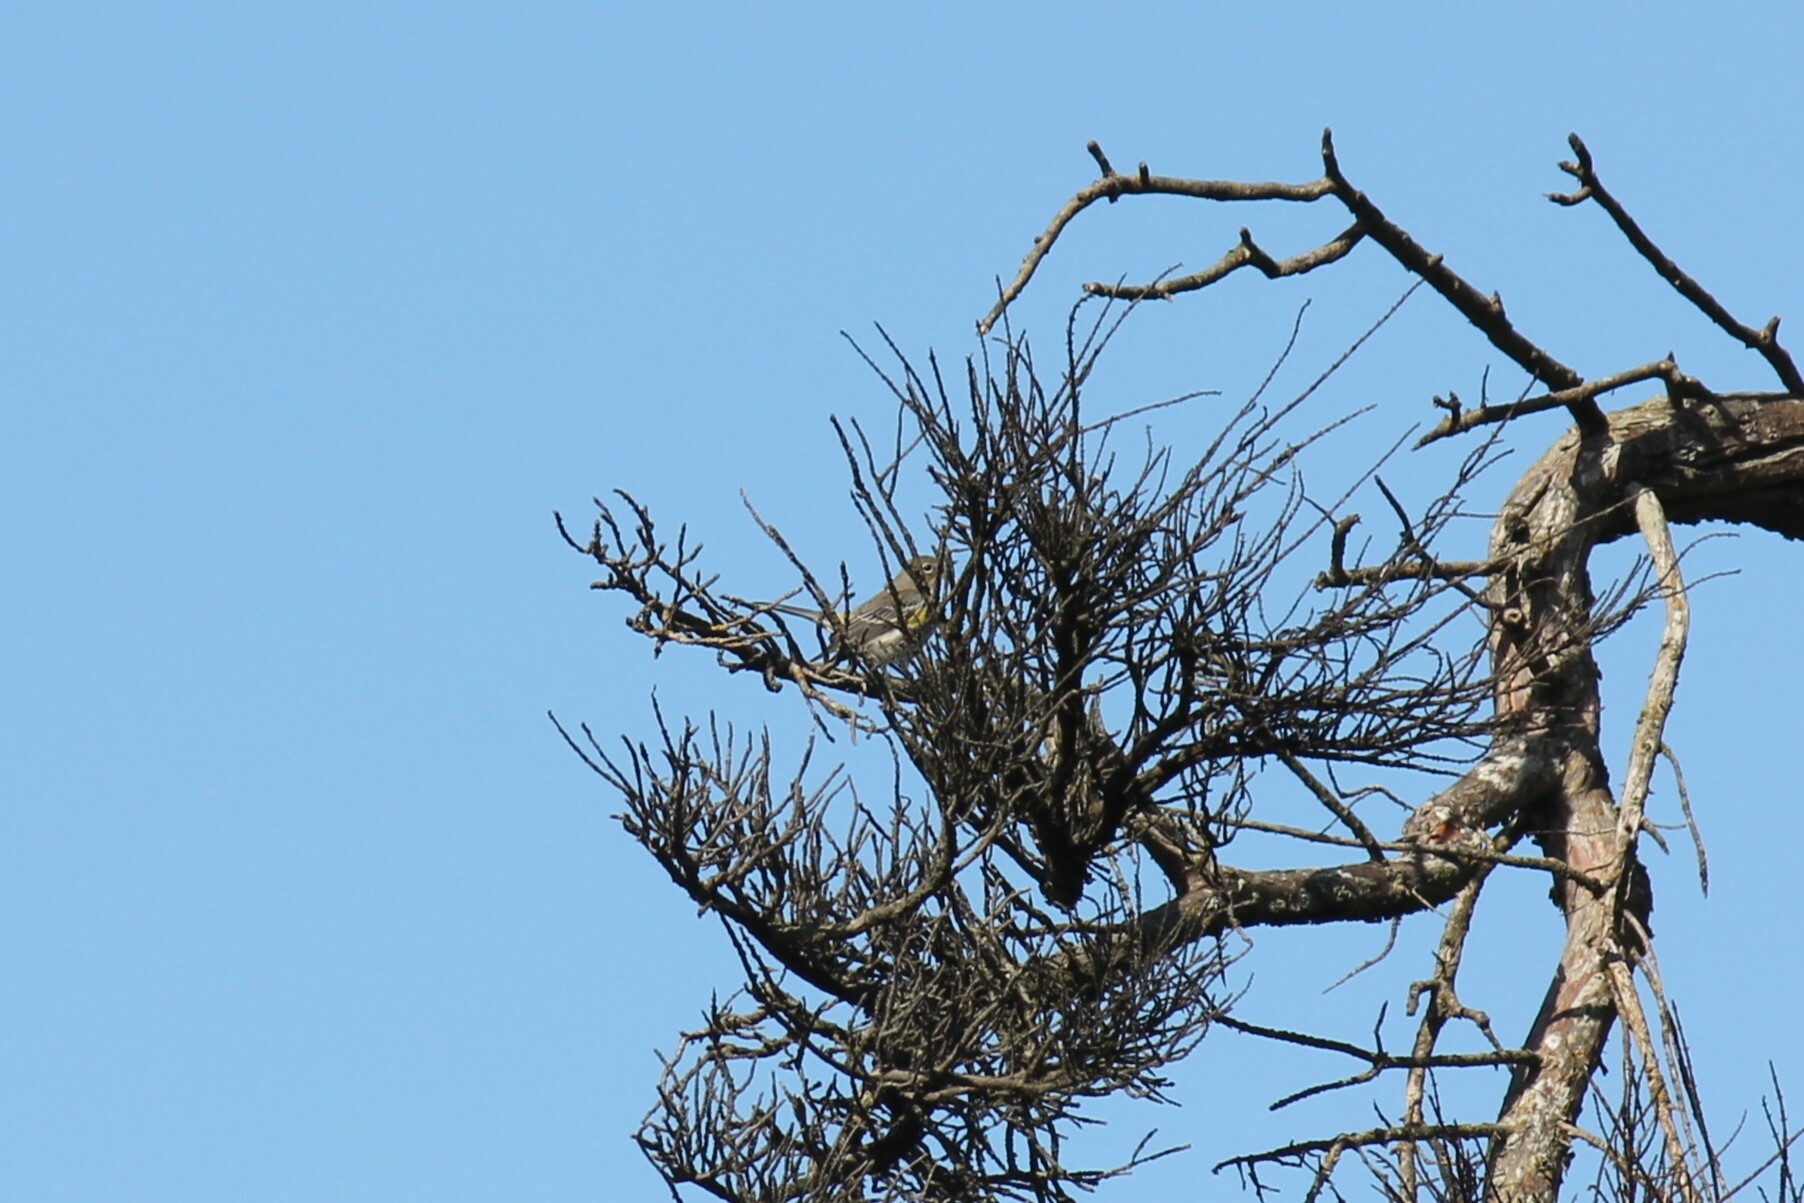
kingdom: Animalia
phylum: Chordata
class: Aves
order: Passeriformes
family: Parulidae
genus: Setophaga
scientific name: Setophaga coronata
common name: Myrtle warbler
